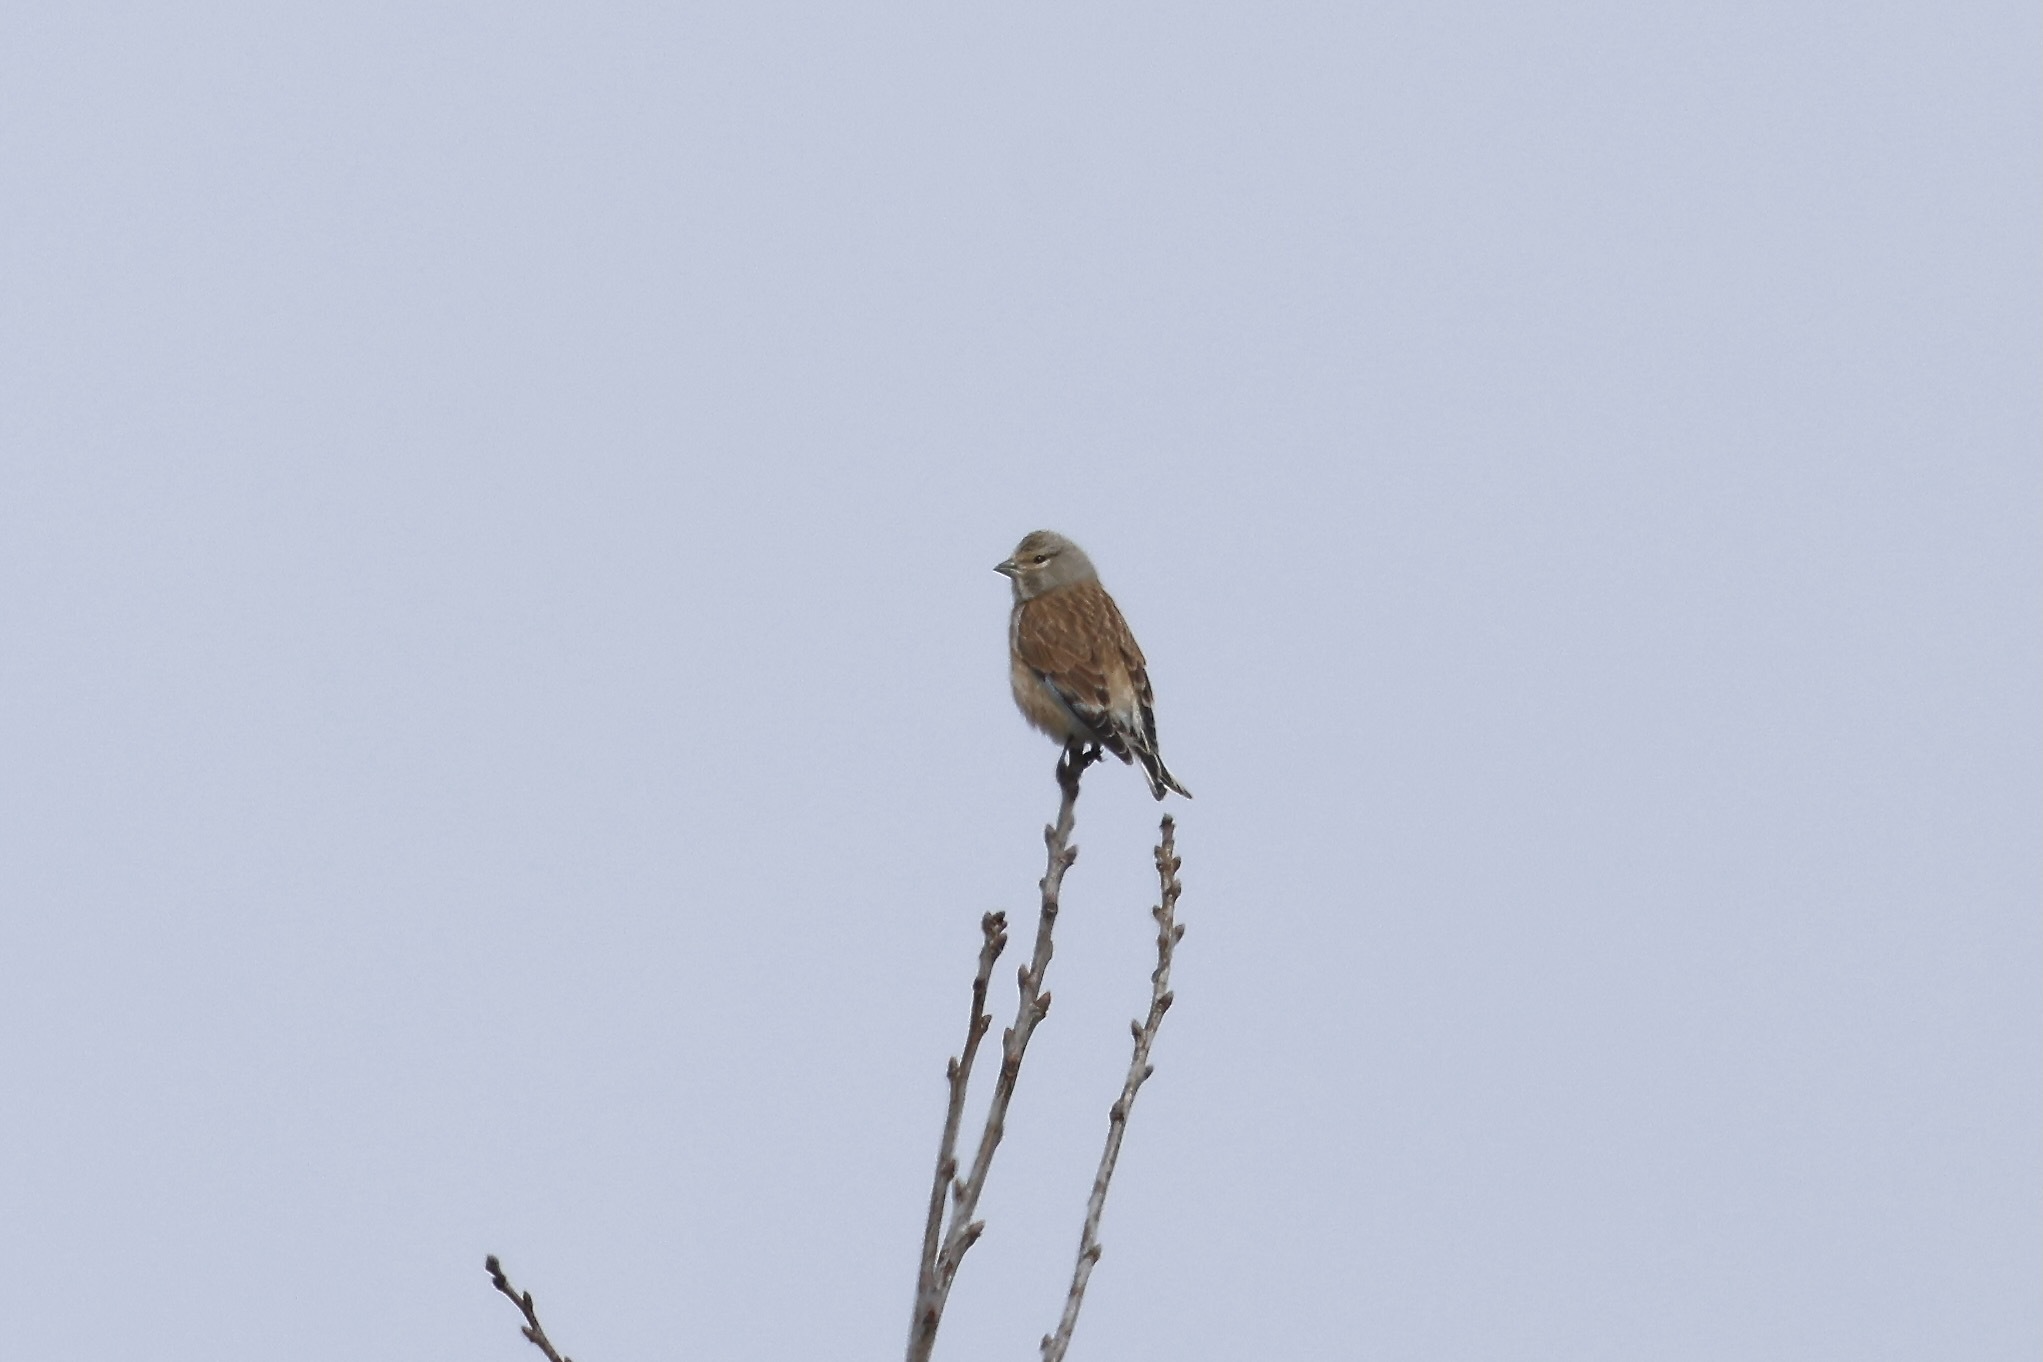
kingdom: Animalia
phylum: Chordata
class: Aves
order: Passeriformes
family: Fringillidae
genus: Linaria
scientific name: Linaria cannabina
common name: Common linnet
